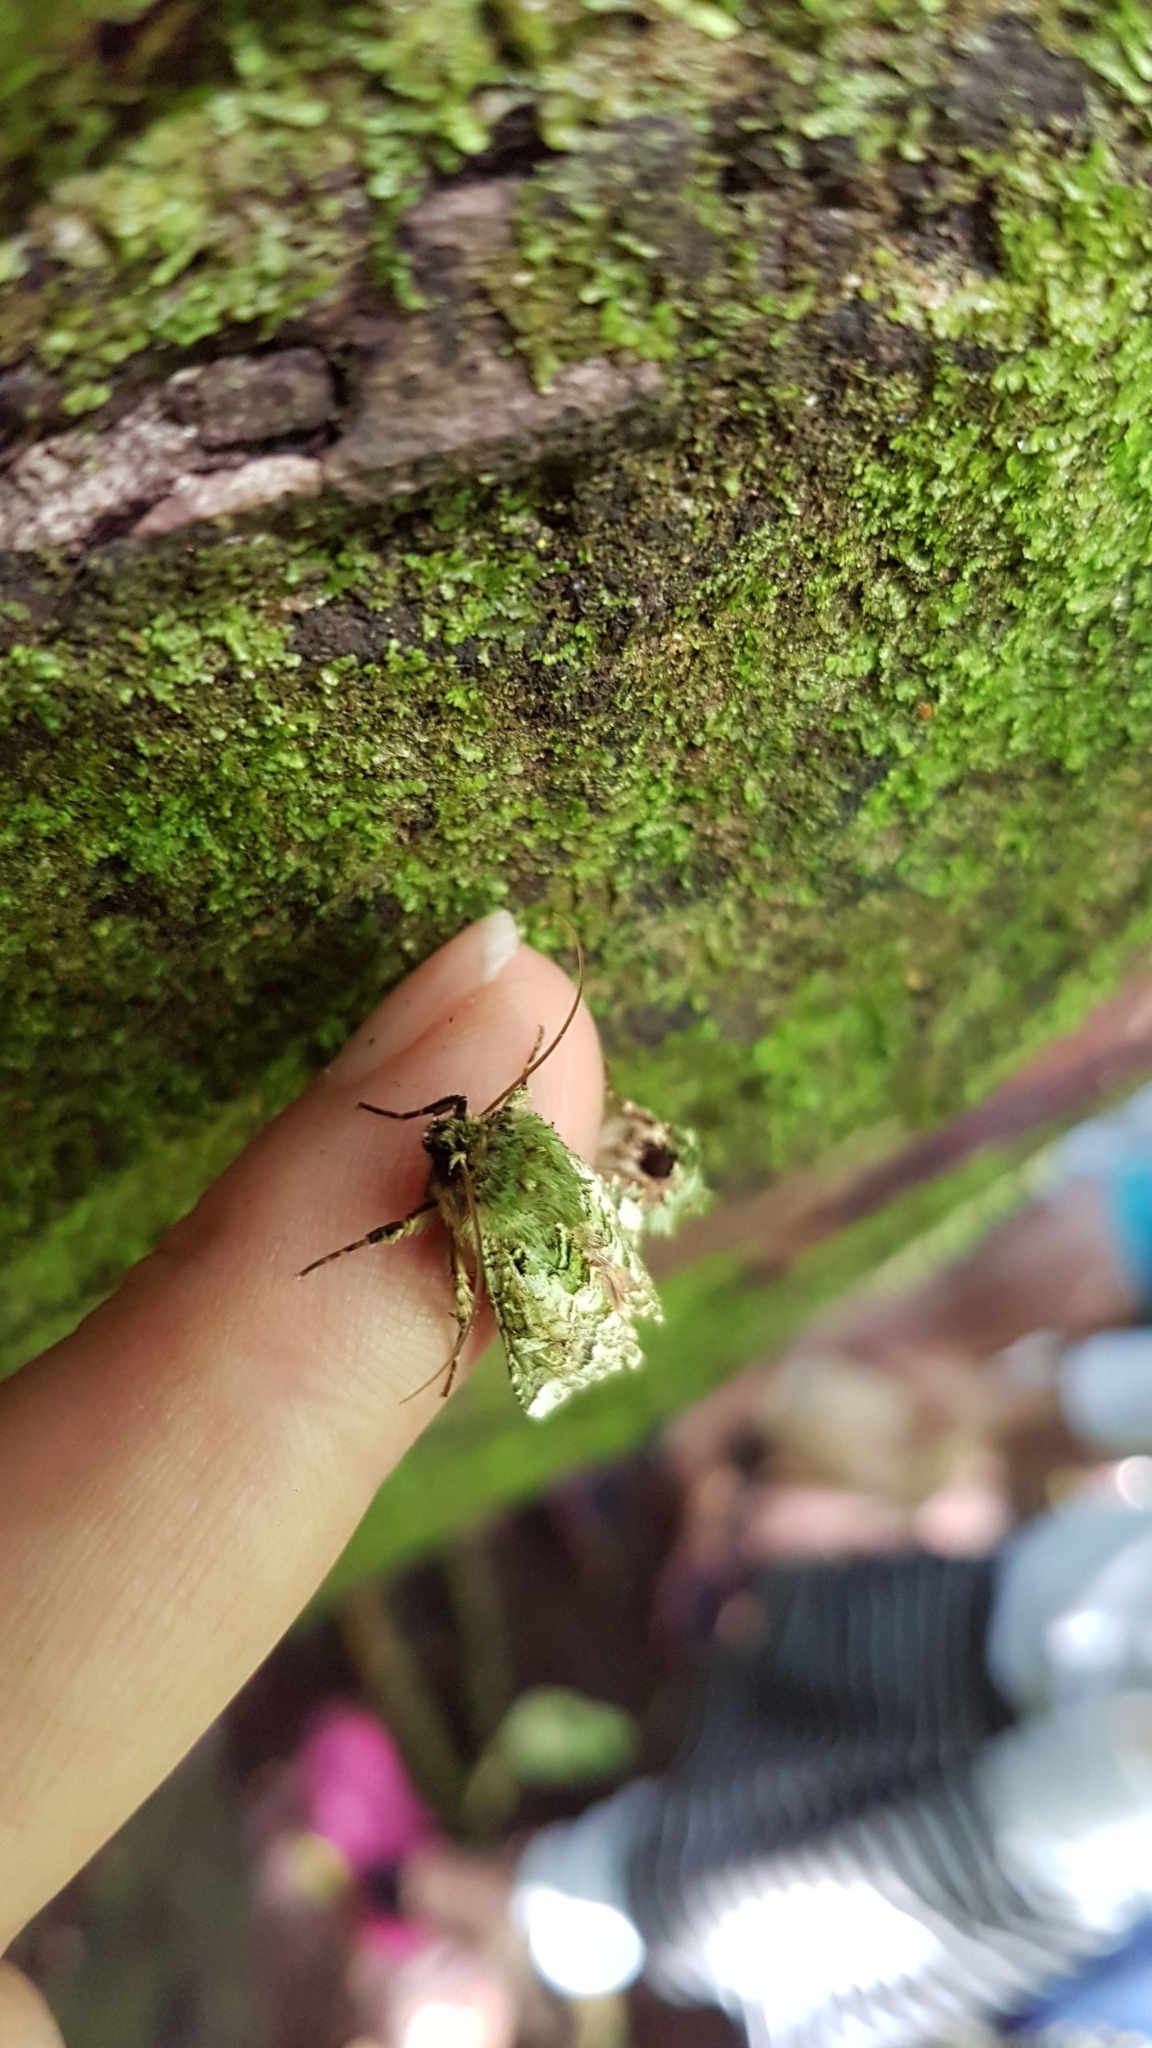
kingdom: Animalia
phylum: Arthropoda
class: Insecta
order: Lepidoptera
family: Noctuidae
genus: Feredayia
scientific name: Feredayia grammosa
